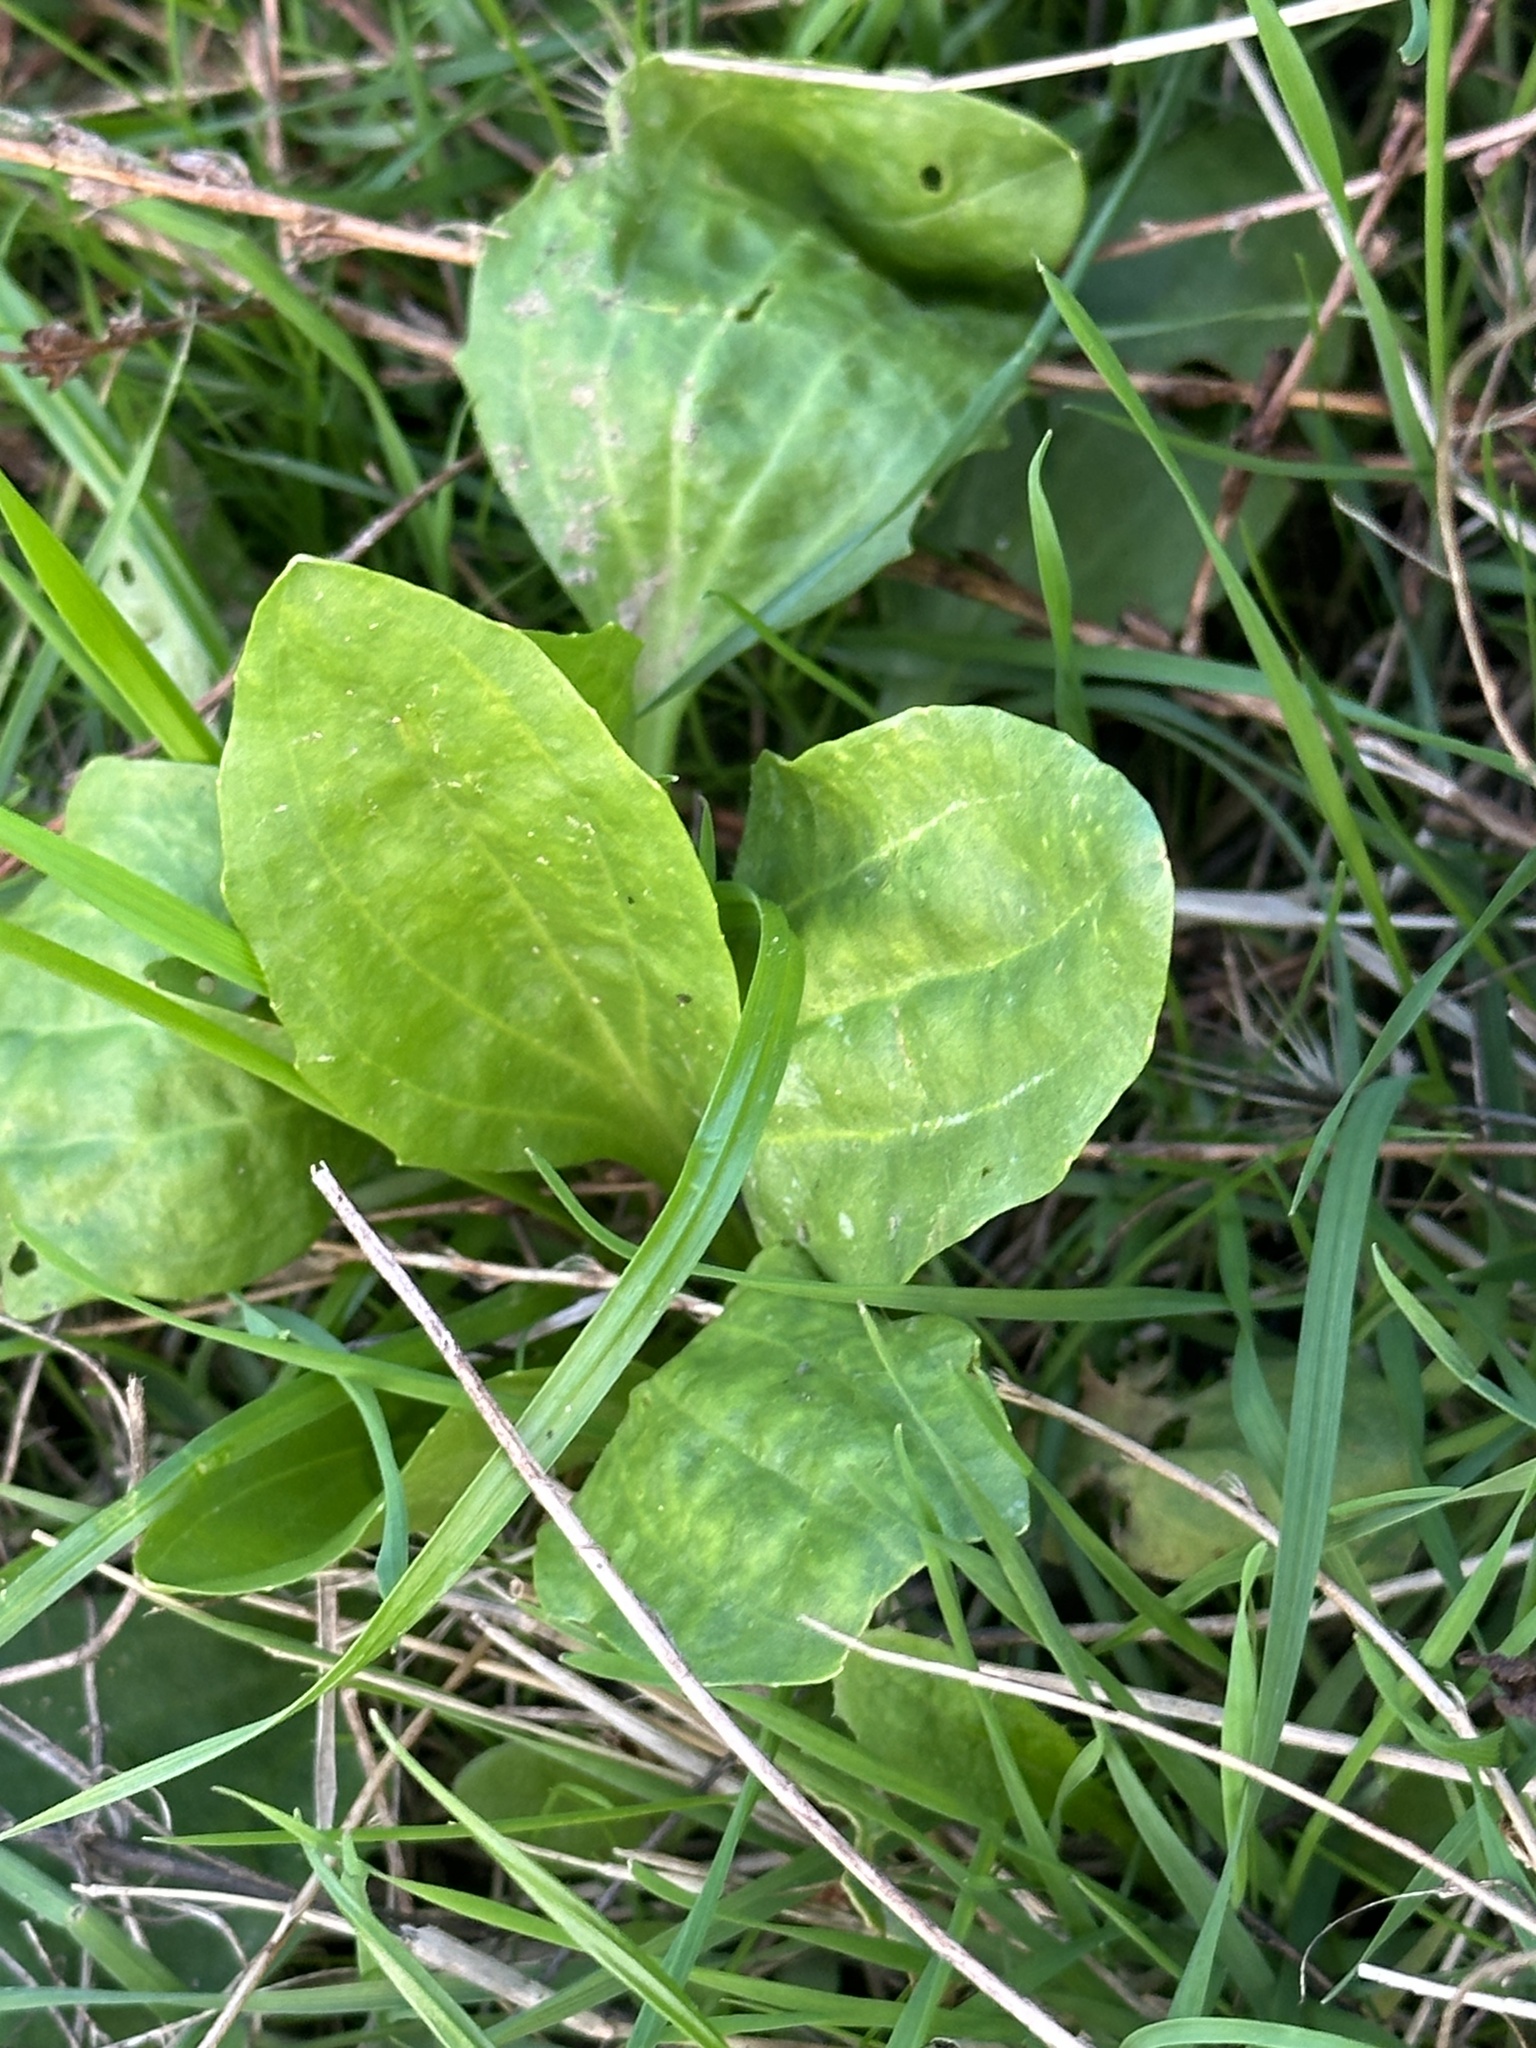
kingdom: Plantae
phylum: Tracheophyta
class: Magnoliopsida
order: Lamiales
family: Plantaginaceae
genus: Plantago
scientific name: Plantago major
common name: Common plantain
